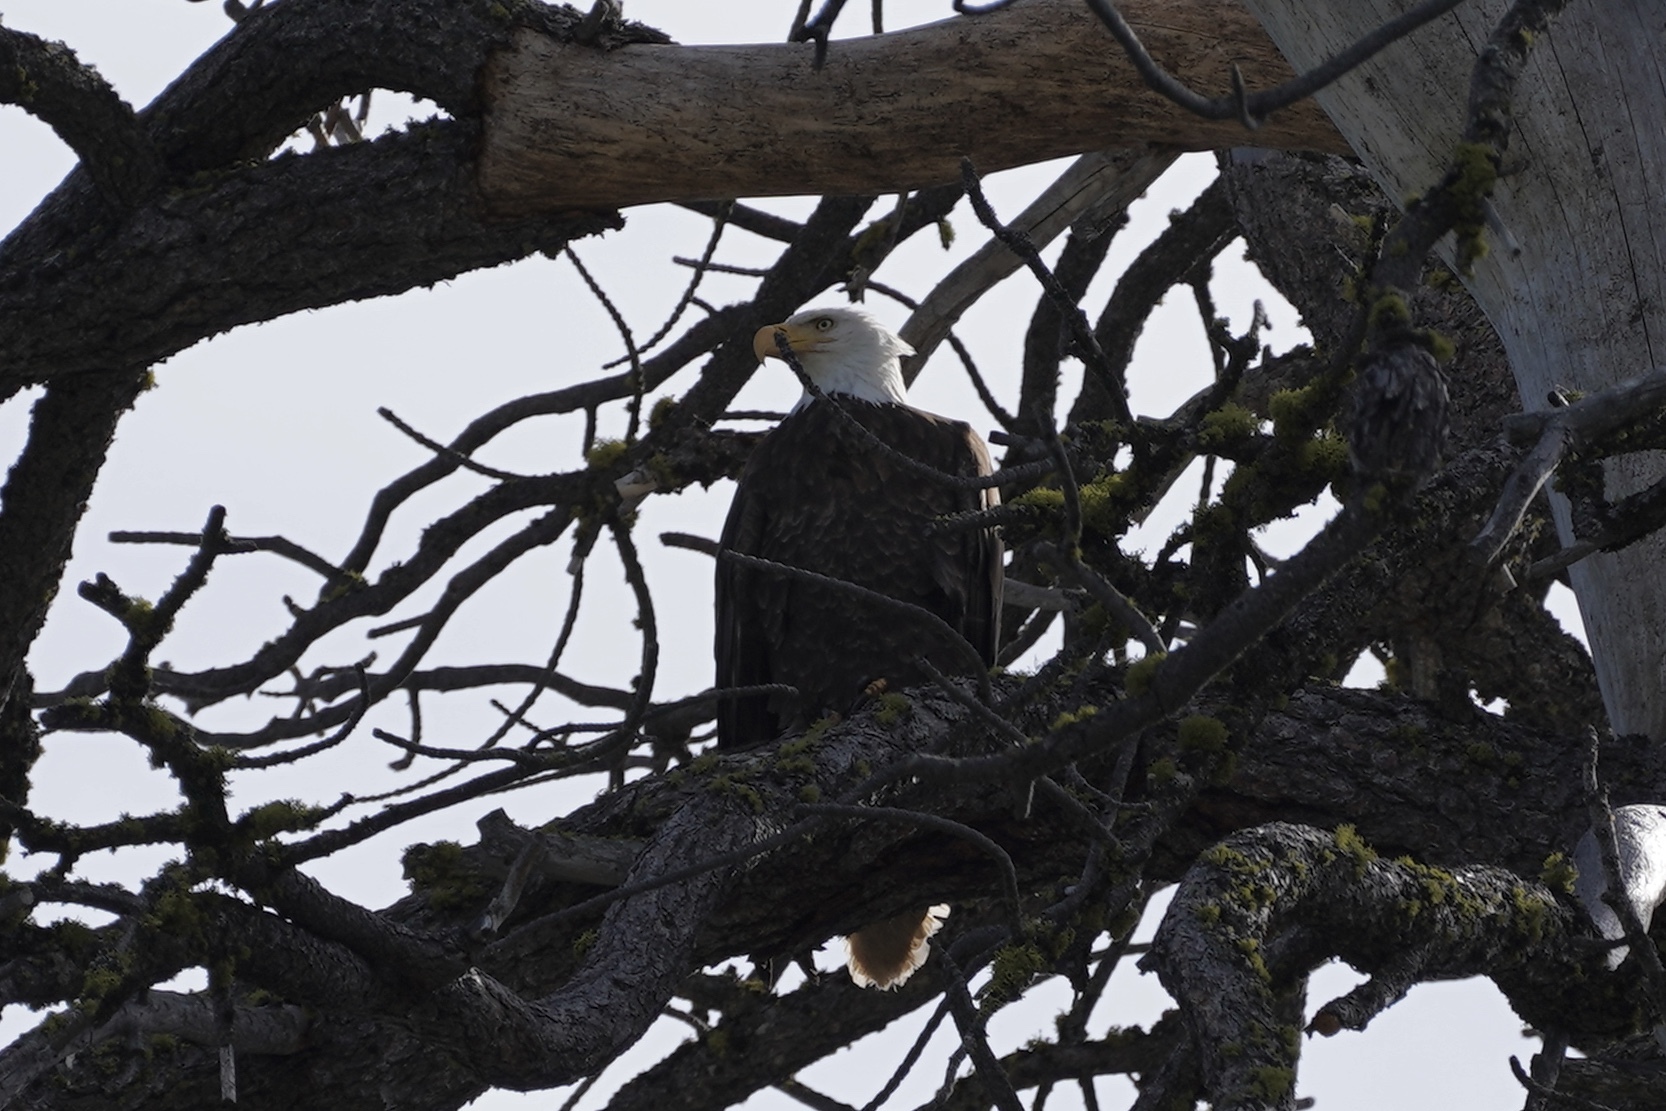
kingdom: Animalia
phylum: Chordata
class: Aves
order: Accipitriformes
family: Accipitridae
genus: Haliaeetus
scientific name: Haliaeetus leucocephalus
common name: Bald eagle
